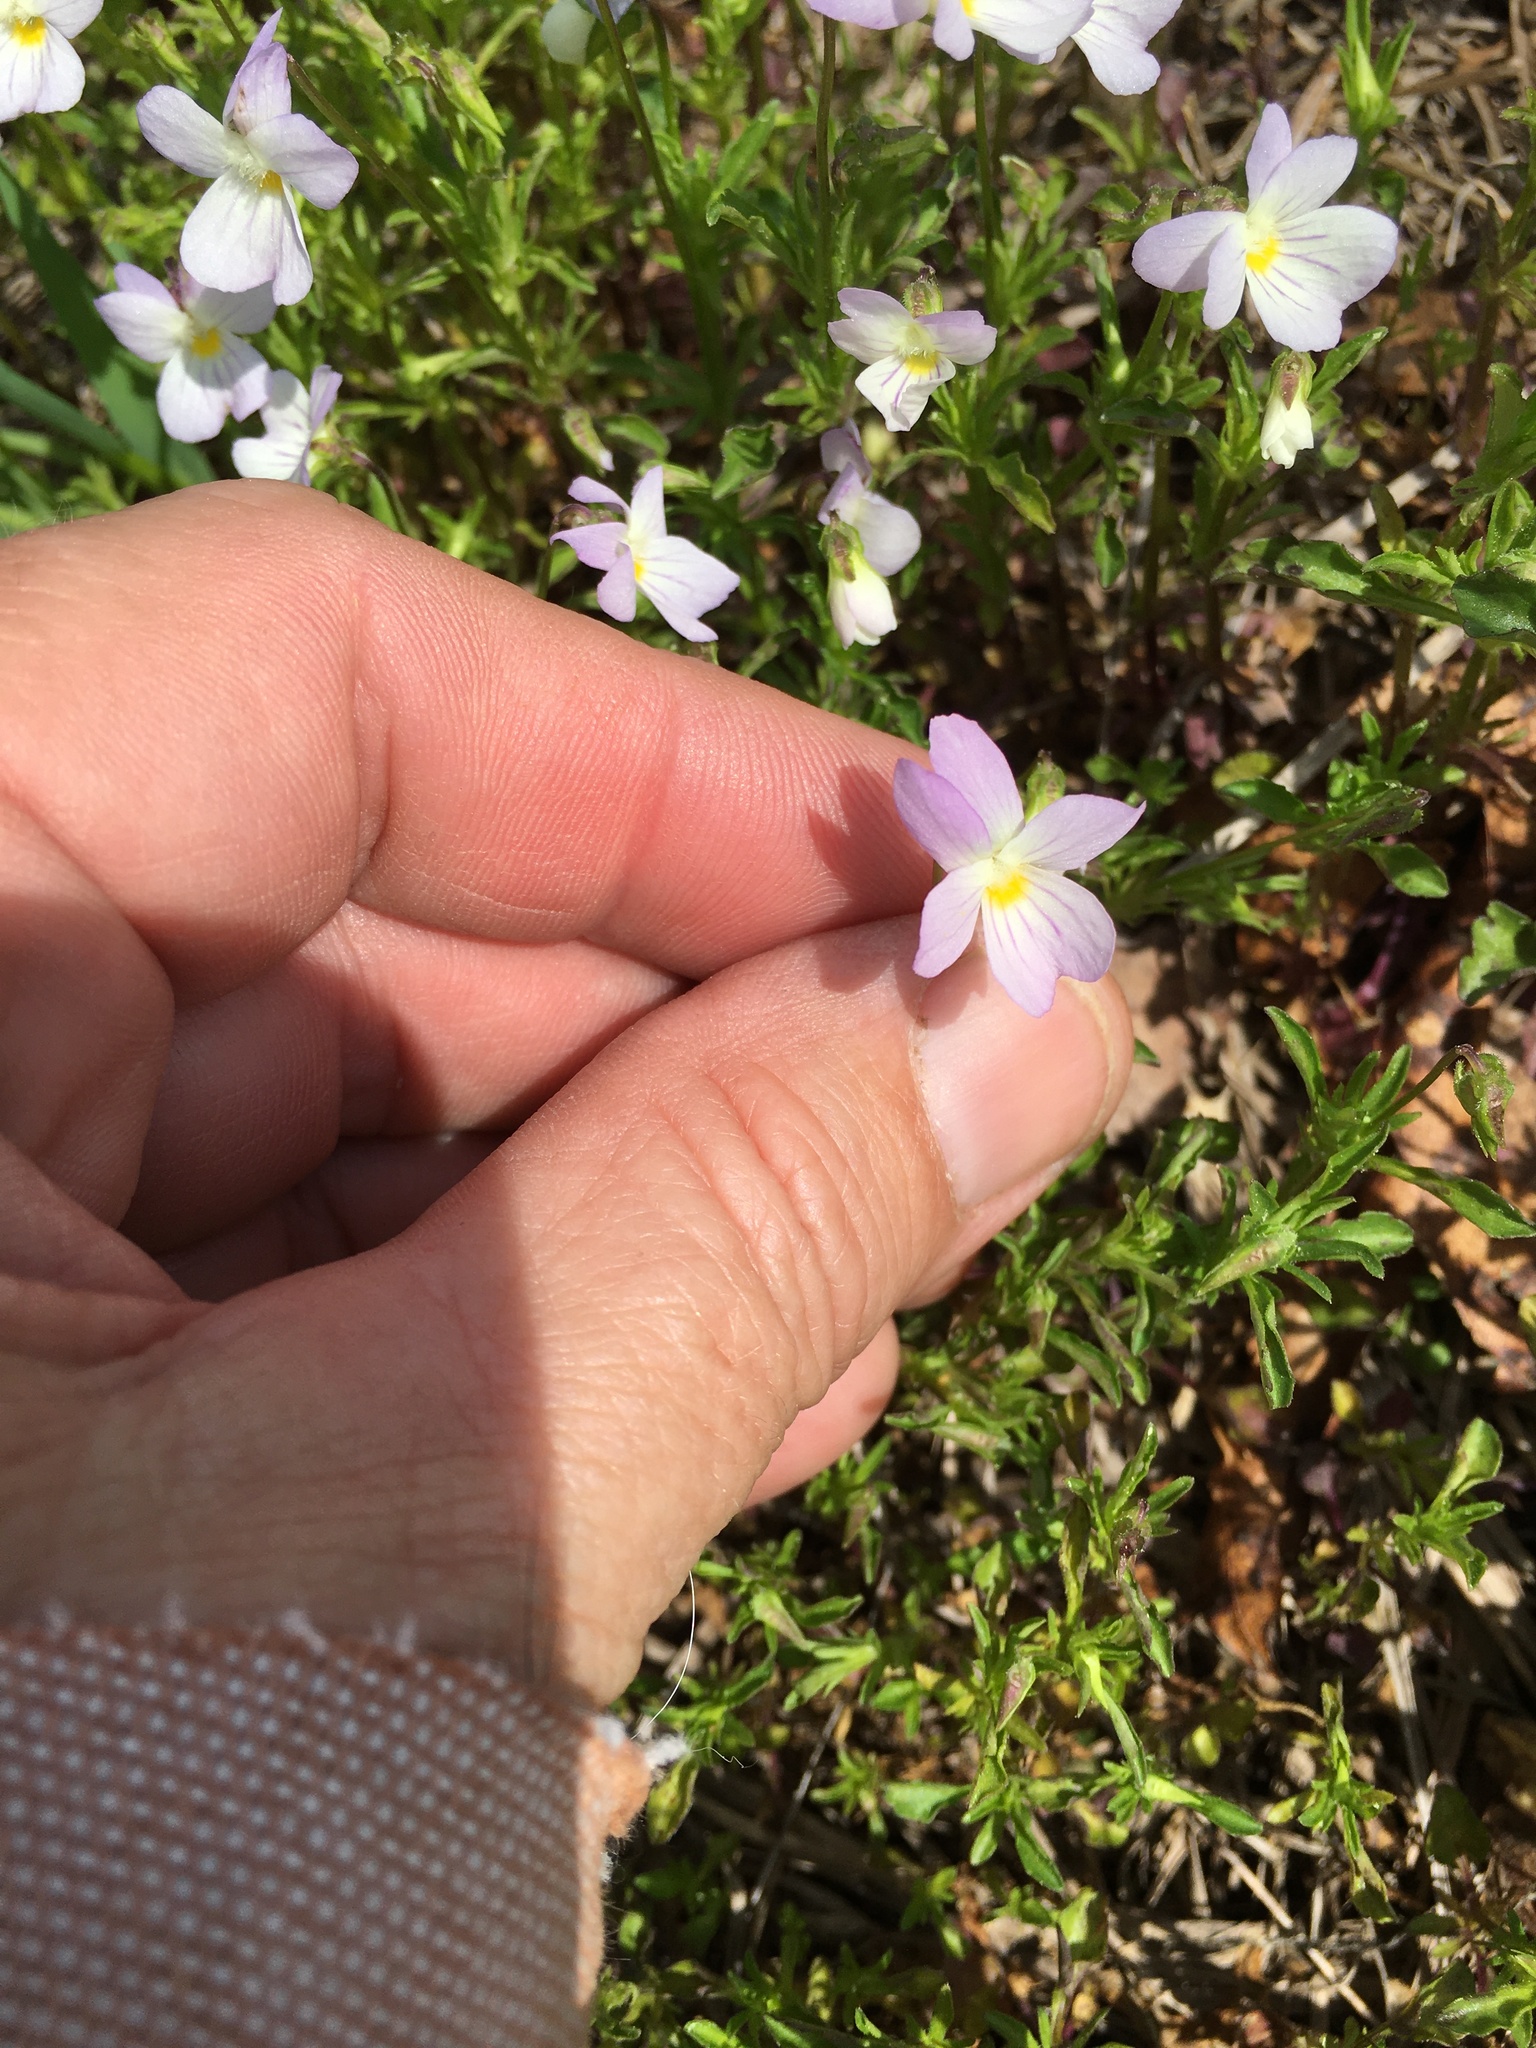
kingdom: Plantae
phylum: Tracheophyta
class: Magnoliopsida
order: Malpighiales
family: Violaceae
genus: Viola
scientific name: Viola rafinesquei
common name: American field pansy
